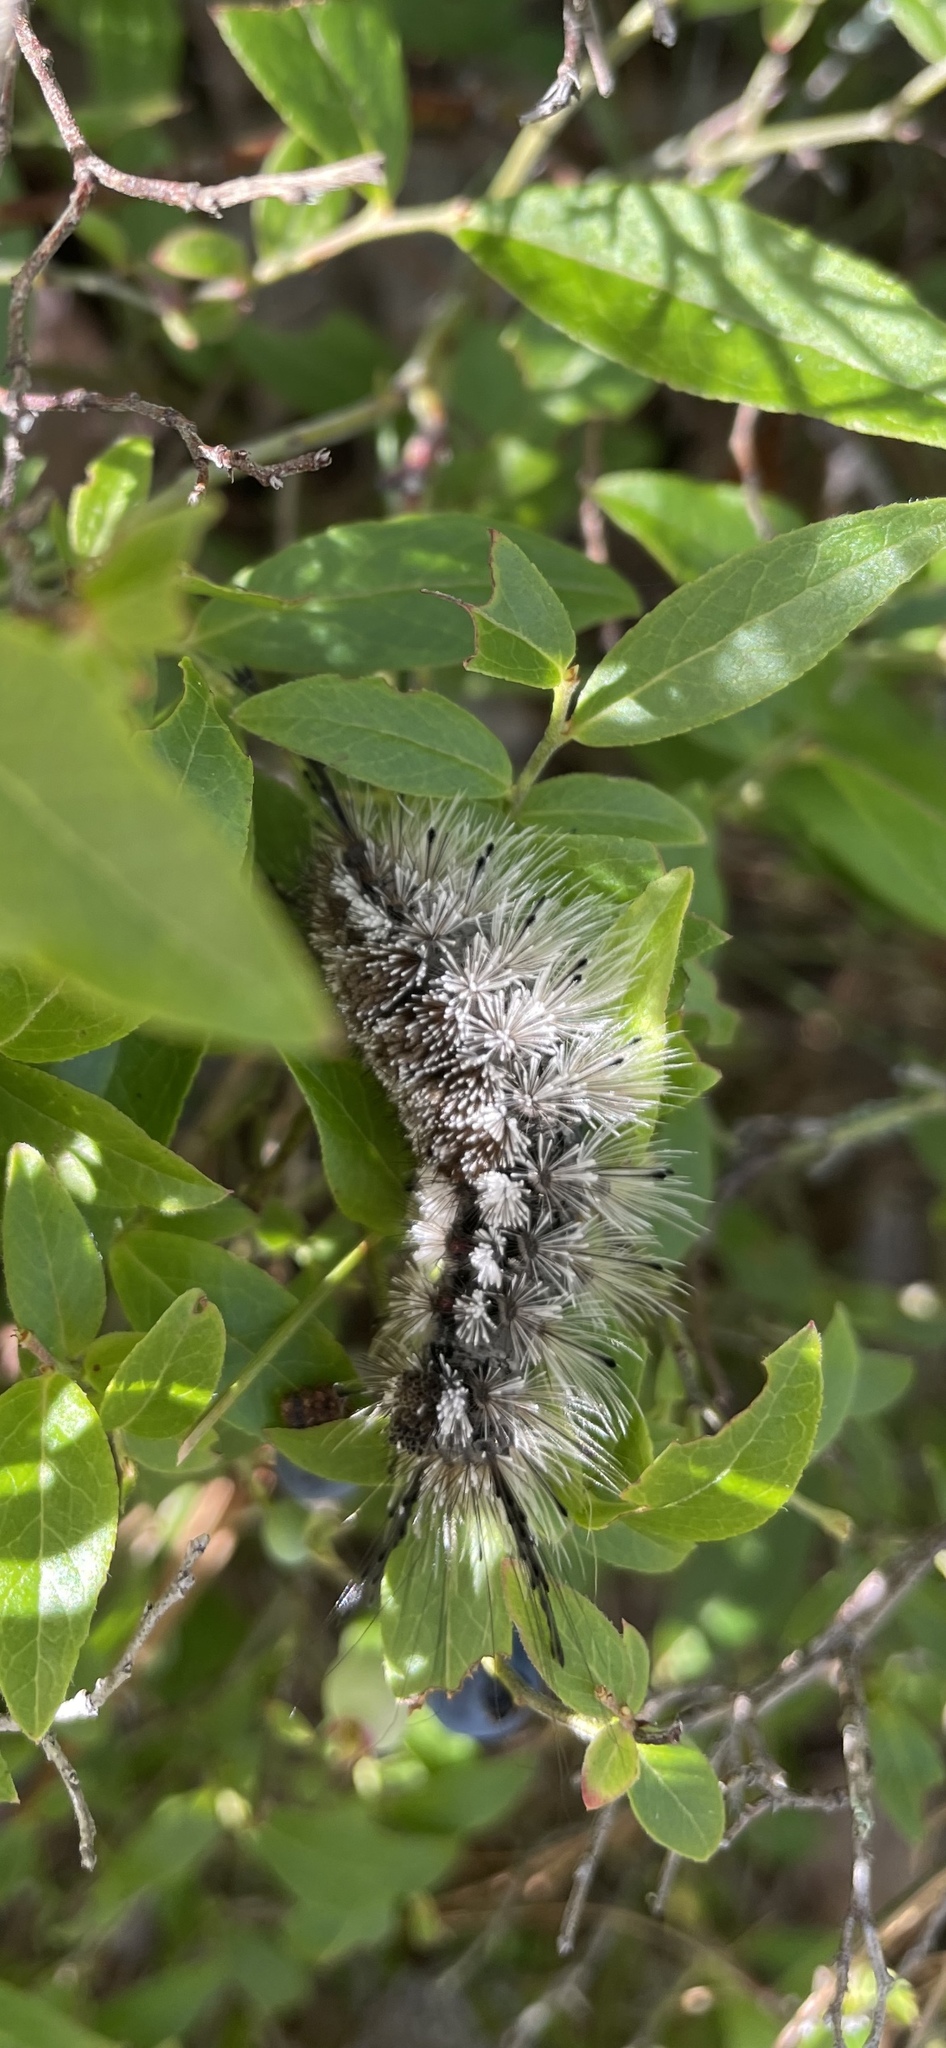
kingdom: Animalia
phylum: Arthropoda
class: Insecta
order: Lepidoptera
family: Erebidae
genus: Dasychira
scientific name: Dasychira dorsipennata
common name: Sharp-lined tussock moth
